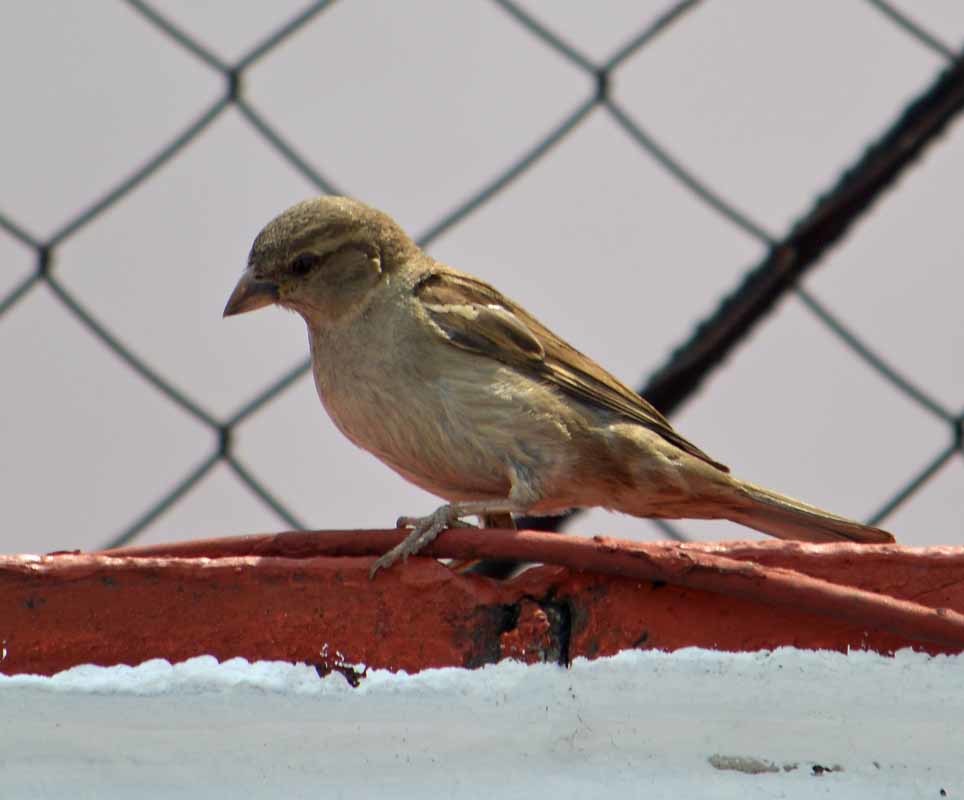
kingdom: Animalia
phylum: Chordata
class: Aves
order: Passeriformes
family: Passeridae
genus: Passer
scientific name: Passer domesticus
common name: House sparrow
